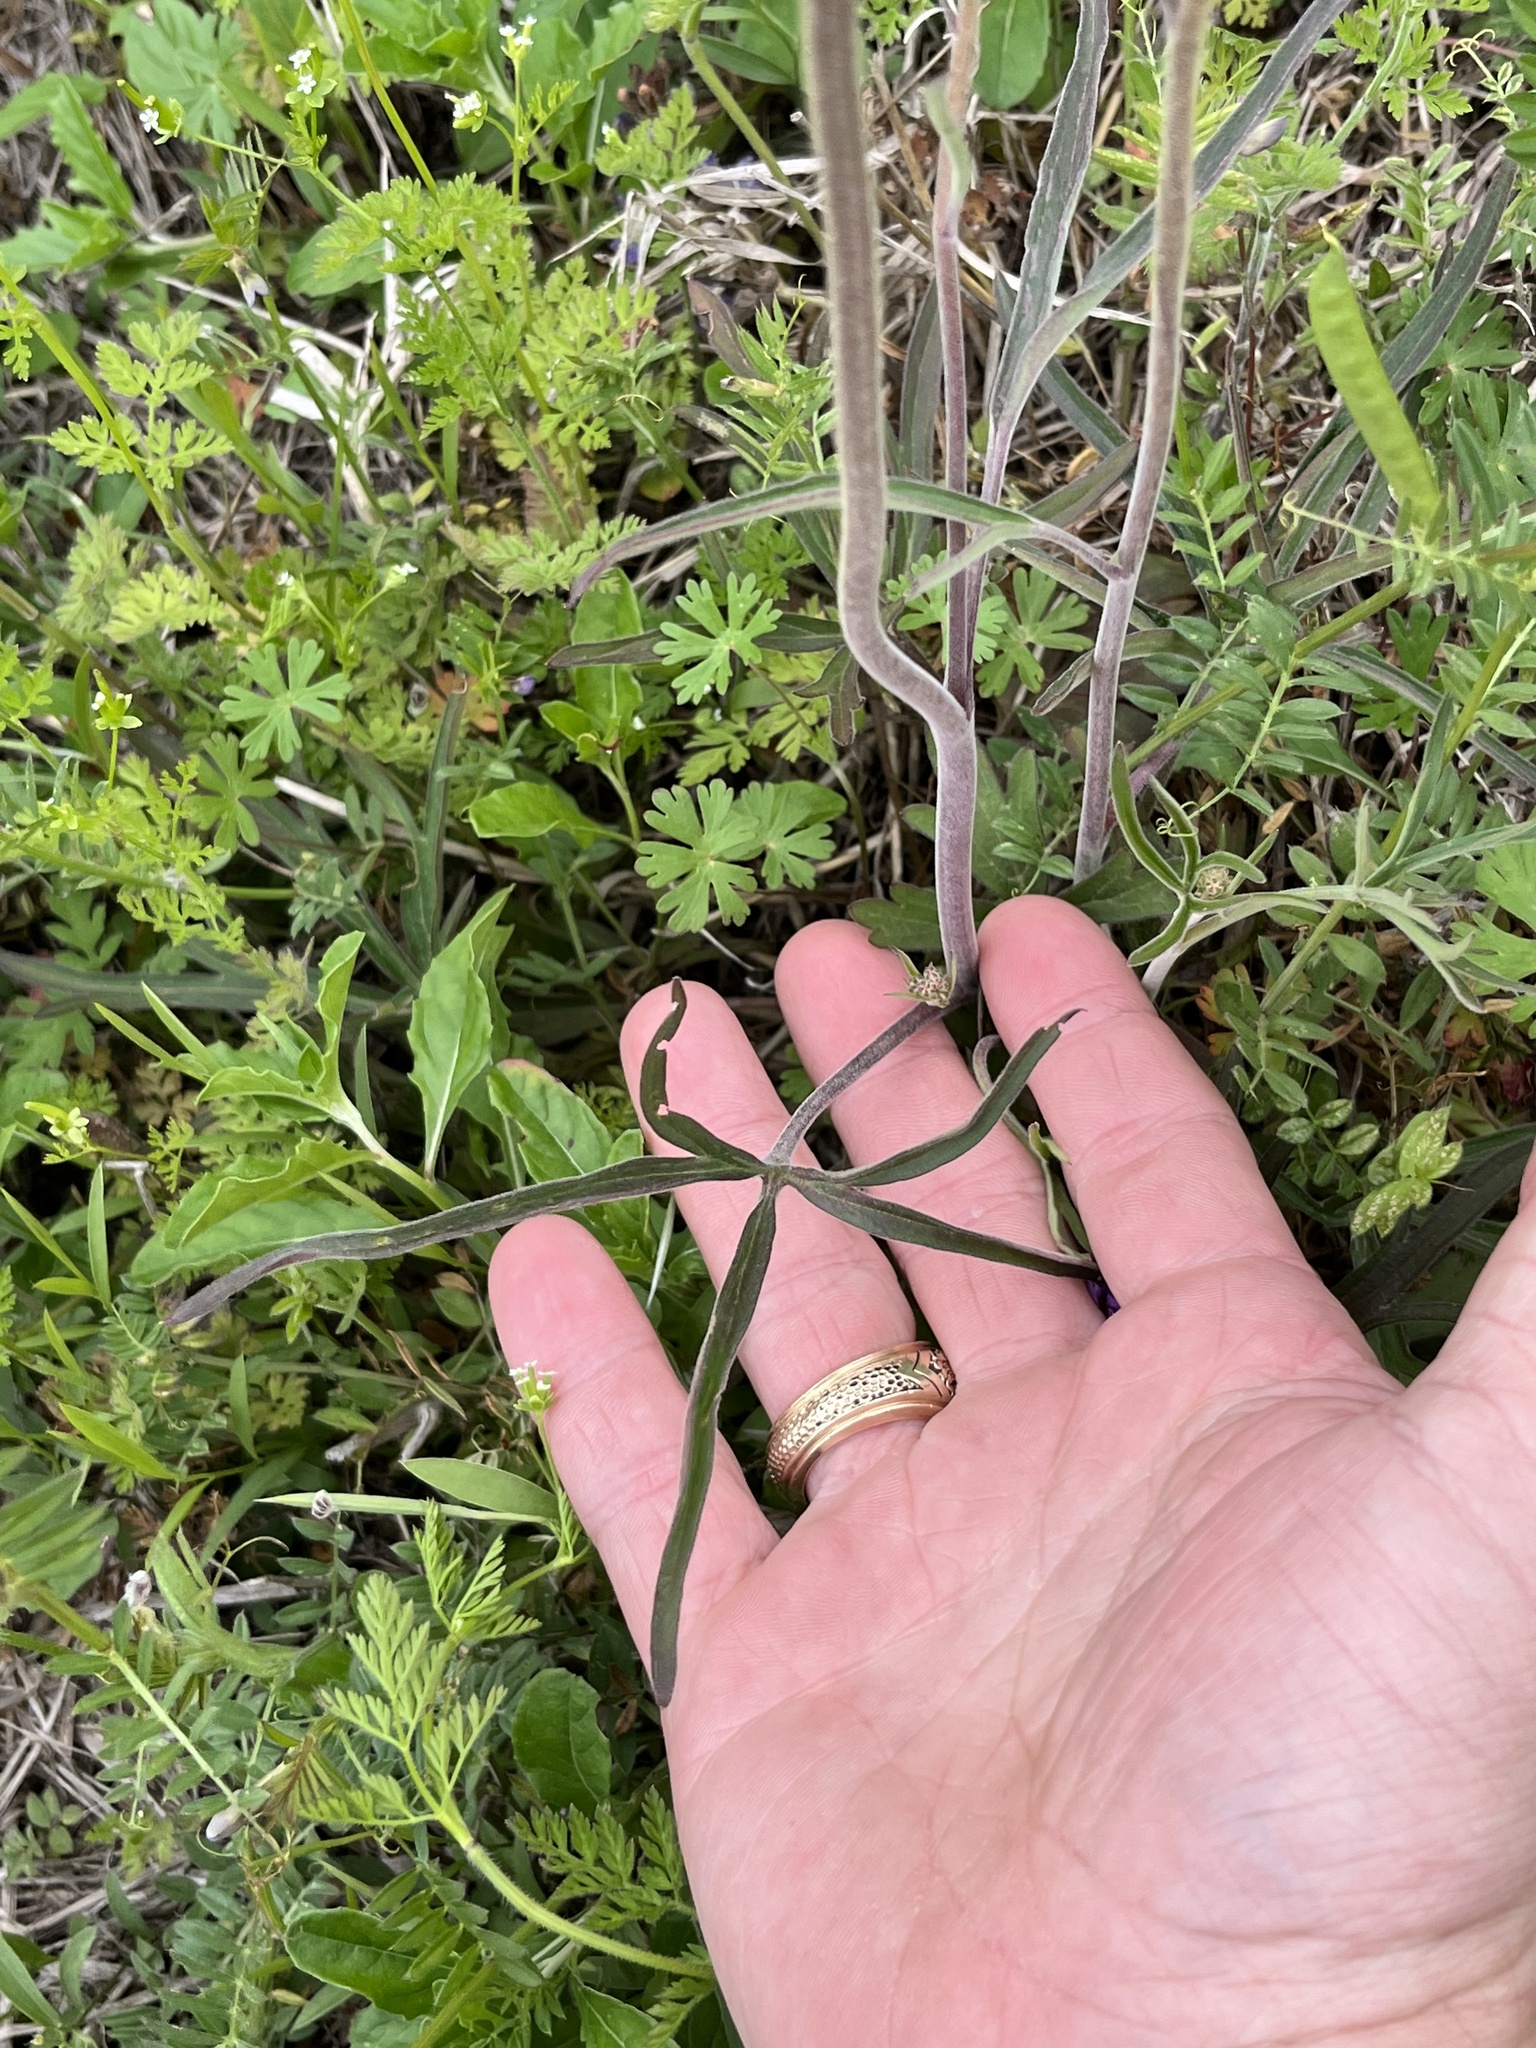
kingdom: Plantae
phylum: Tracheophyta
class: Magnoliopsida
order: Ranunculales
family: Ranunculaceae
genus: Delphinium
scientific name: Delphinium carolinianum
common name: Carolina larkspur
